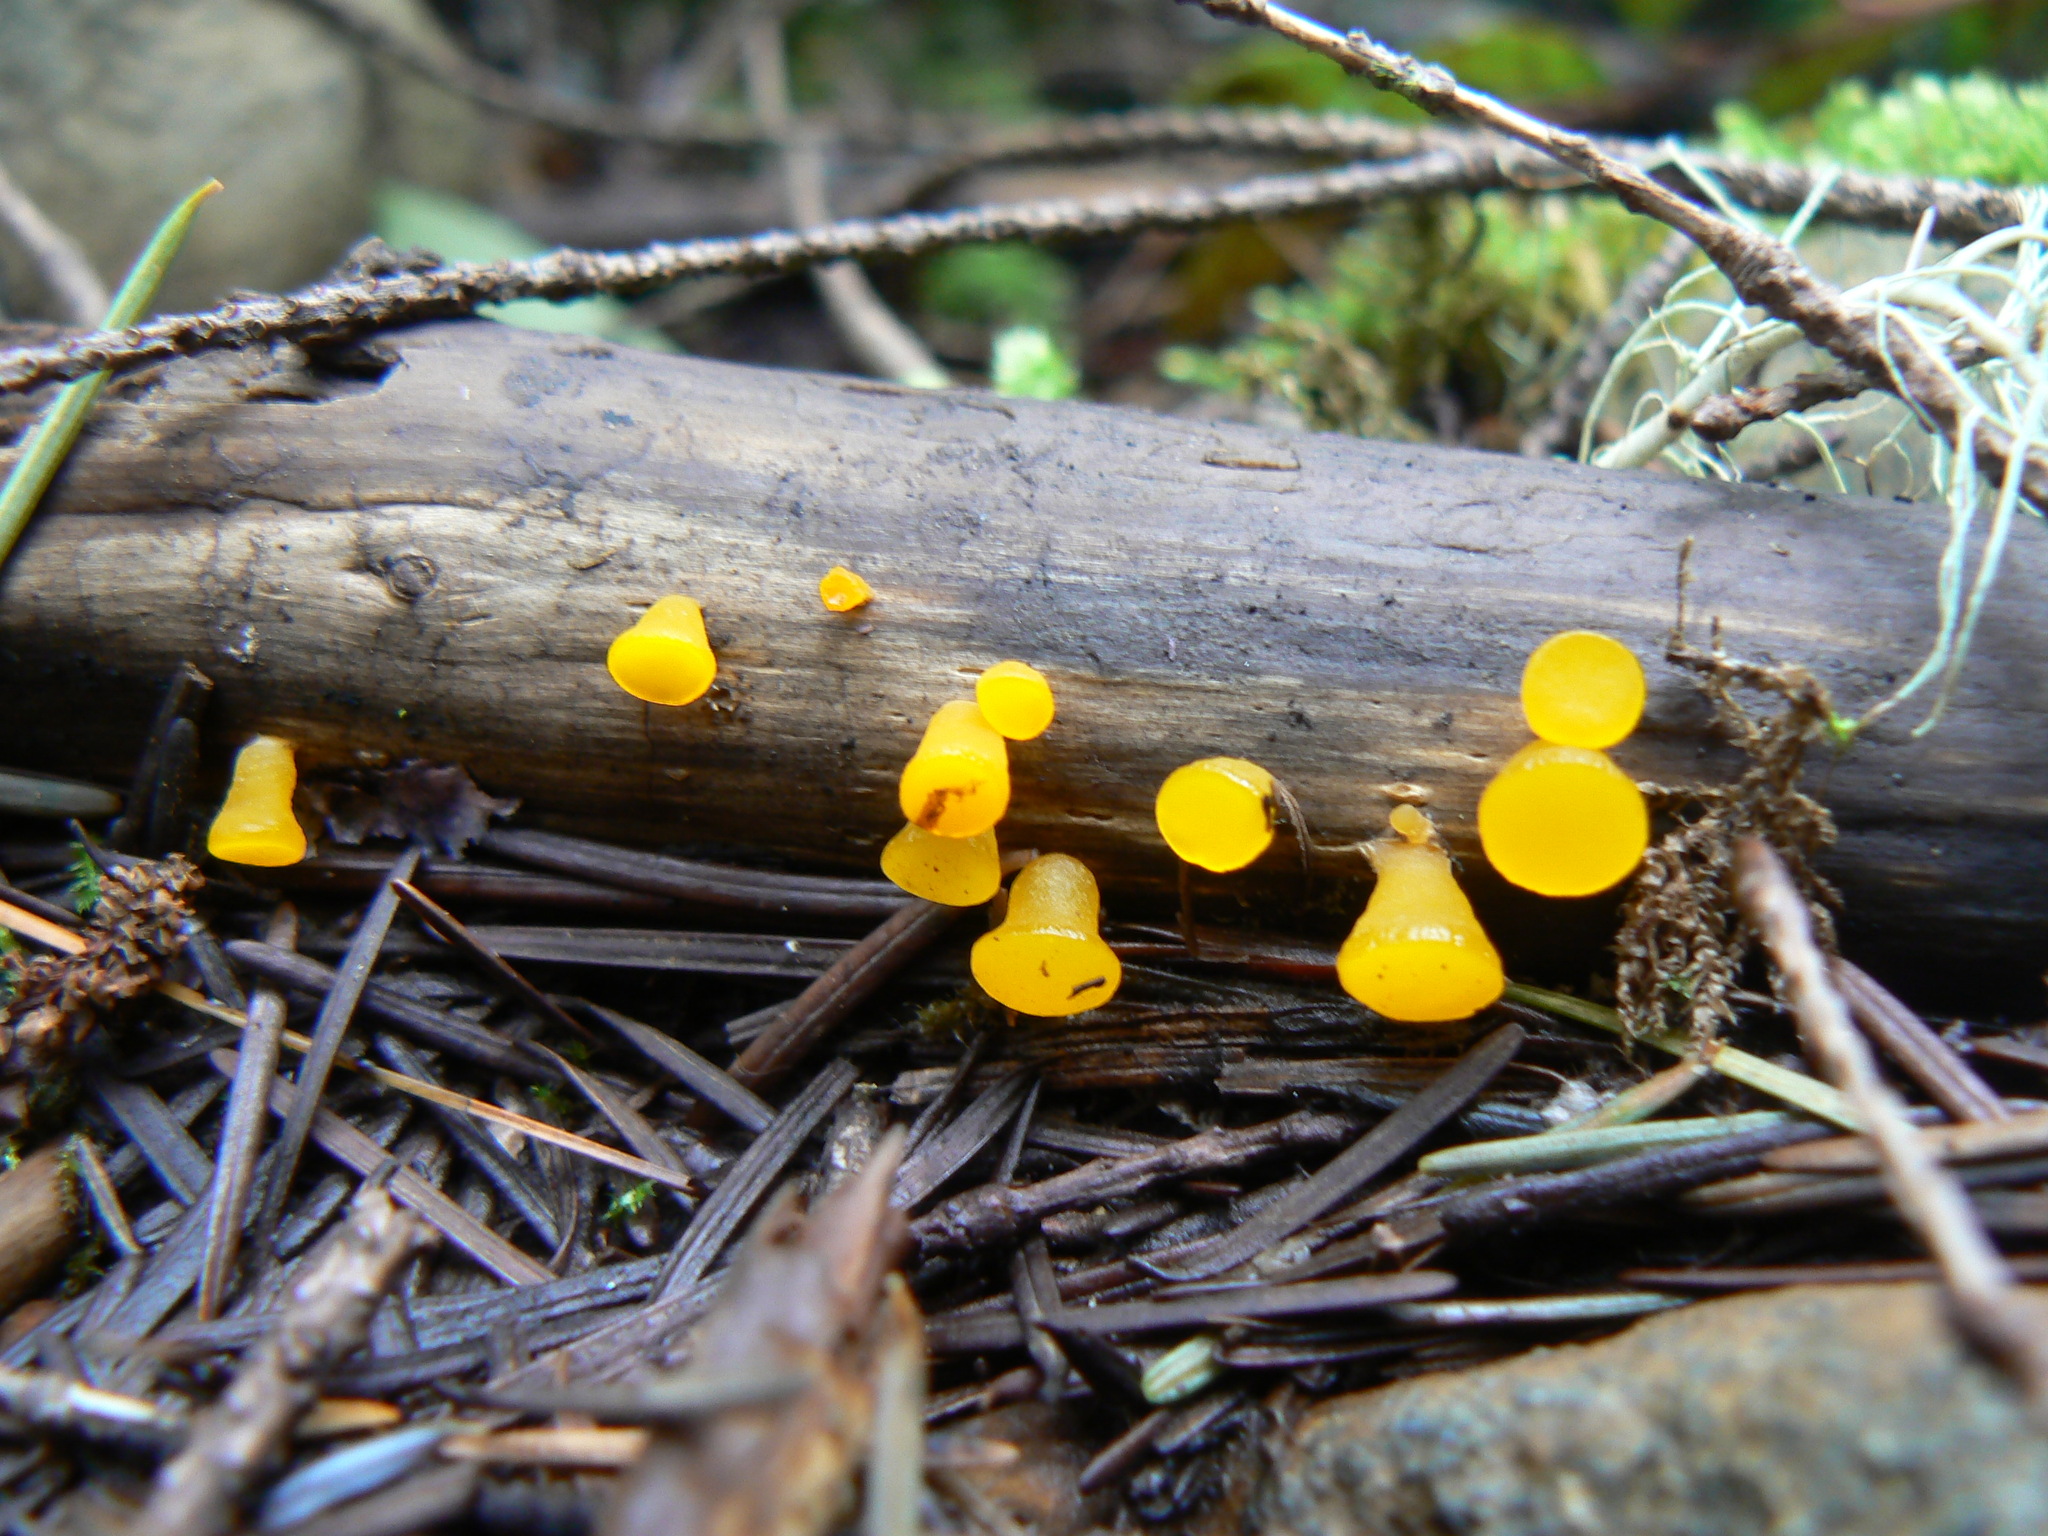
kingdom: Fungi
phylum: Basidiomycota
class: Dacrymycetes
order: Dacrymycetales
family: Dacrymycetaceae
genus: Guepiniopsis
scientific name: Guepiniopsis alpina
